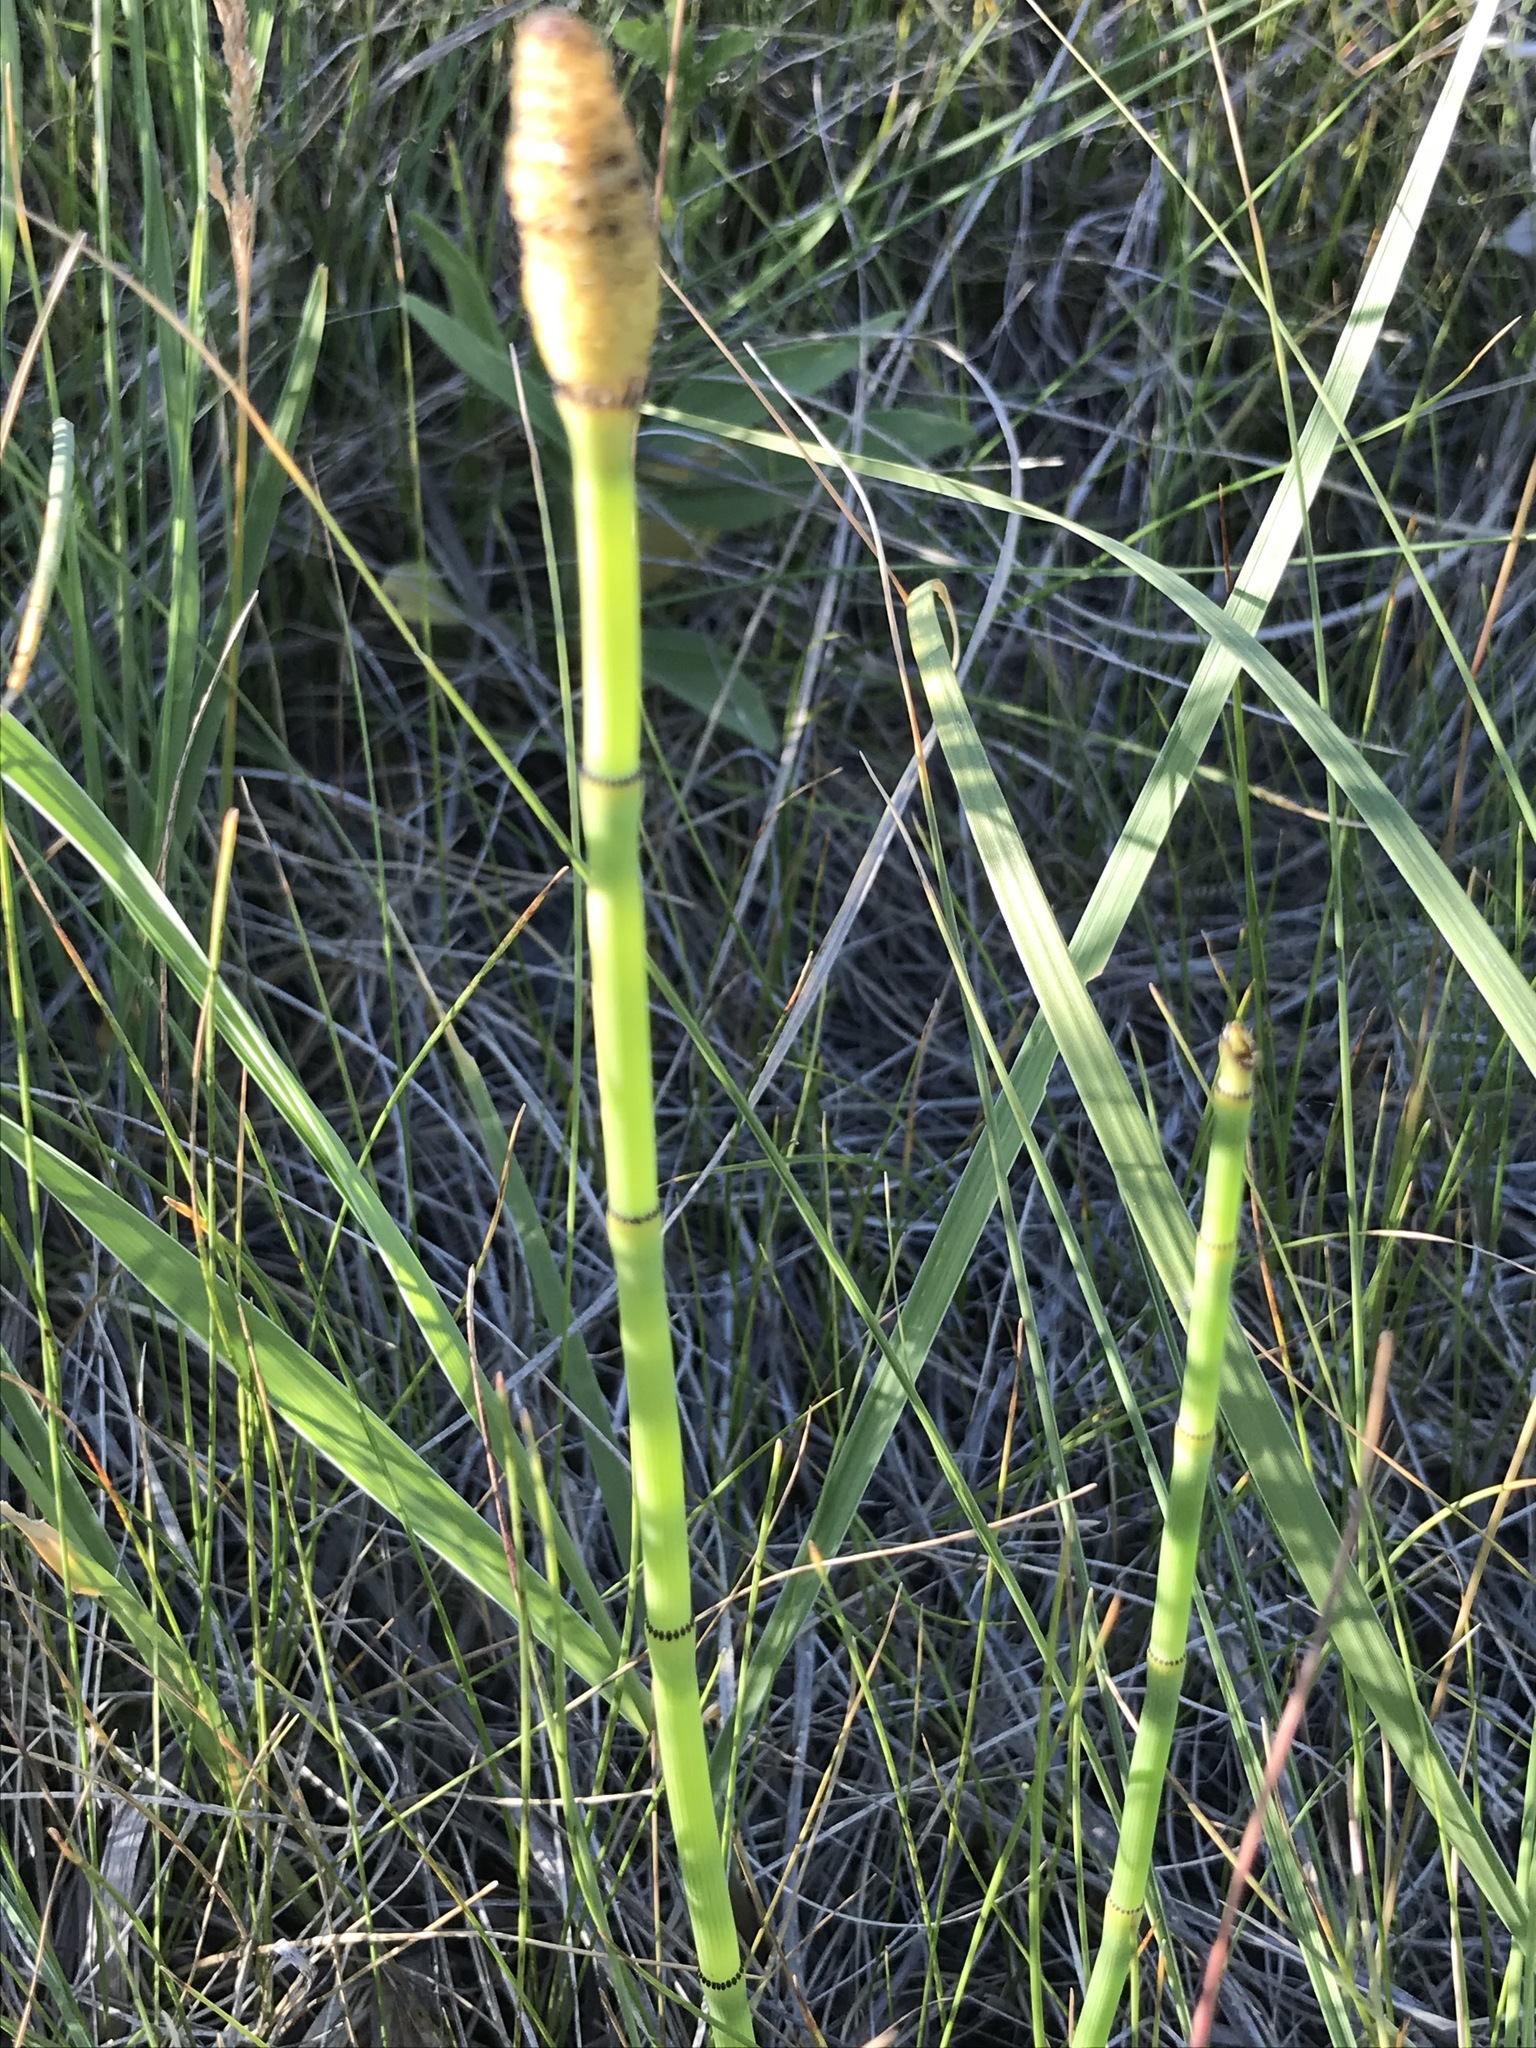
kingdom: Plantae
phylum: Tracheophyta
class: Polypodiopsida
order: Equisetales
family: Equisetaceae
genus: Equisetum
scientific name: Equisetum laevigatum
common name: Smooth scouring-rush
